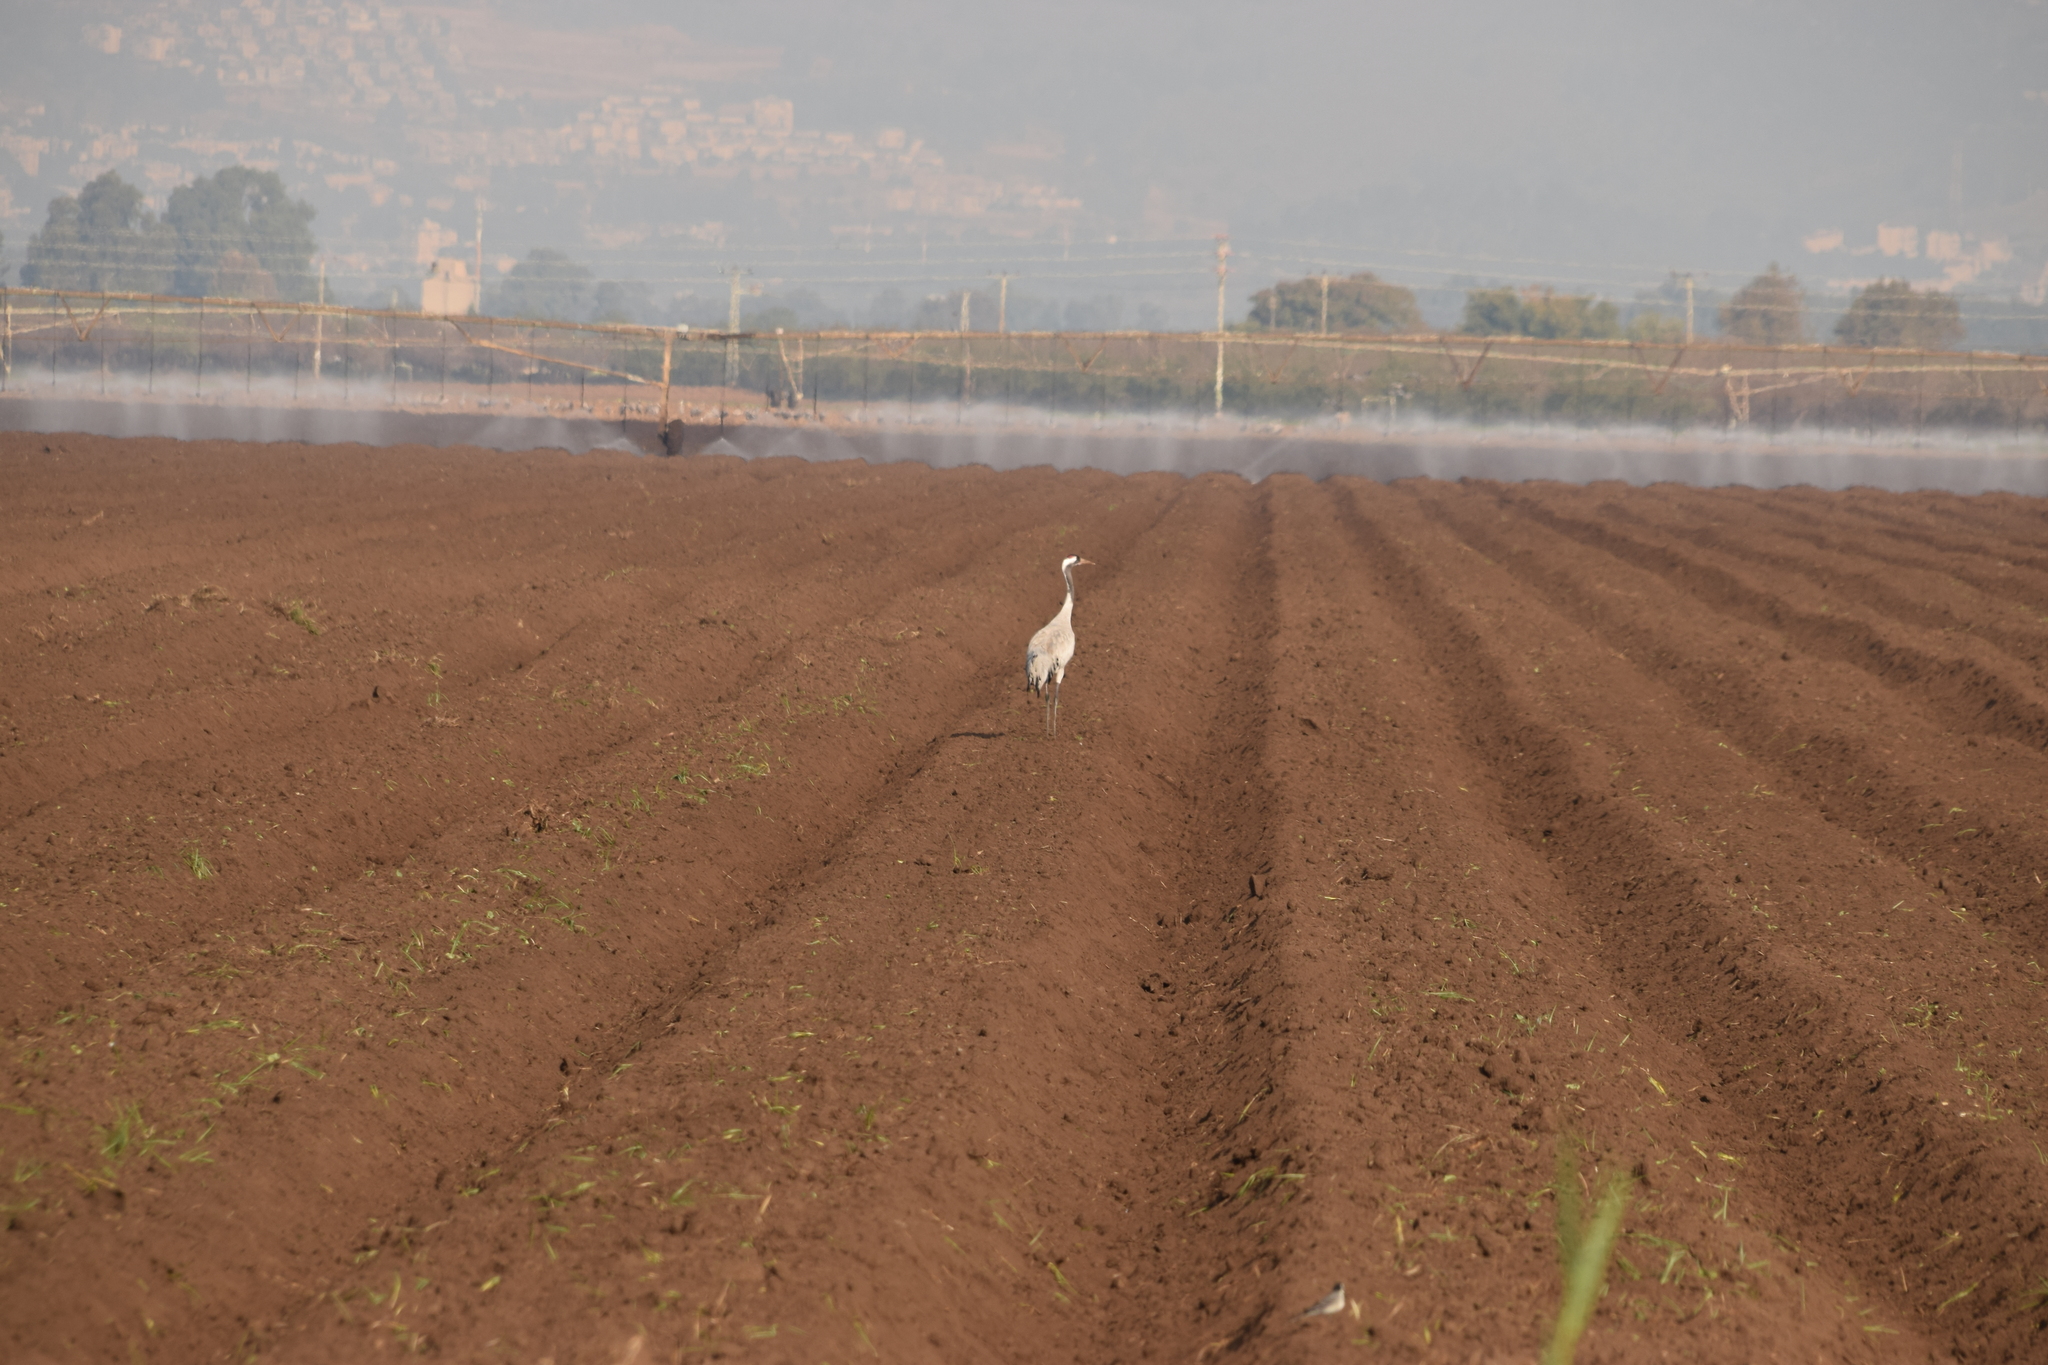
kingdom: Animalia
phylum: Chordata
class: Aves
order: Gruiformes
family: Gruidae
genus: Grus
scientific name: Grus grus
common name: Common crane
